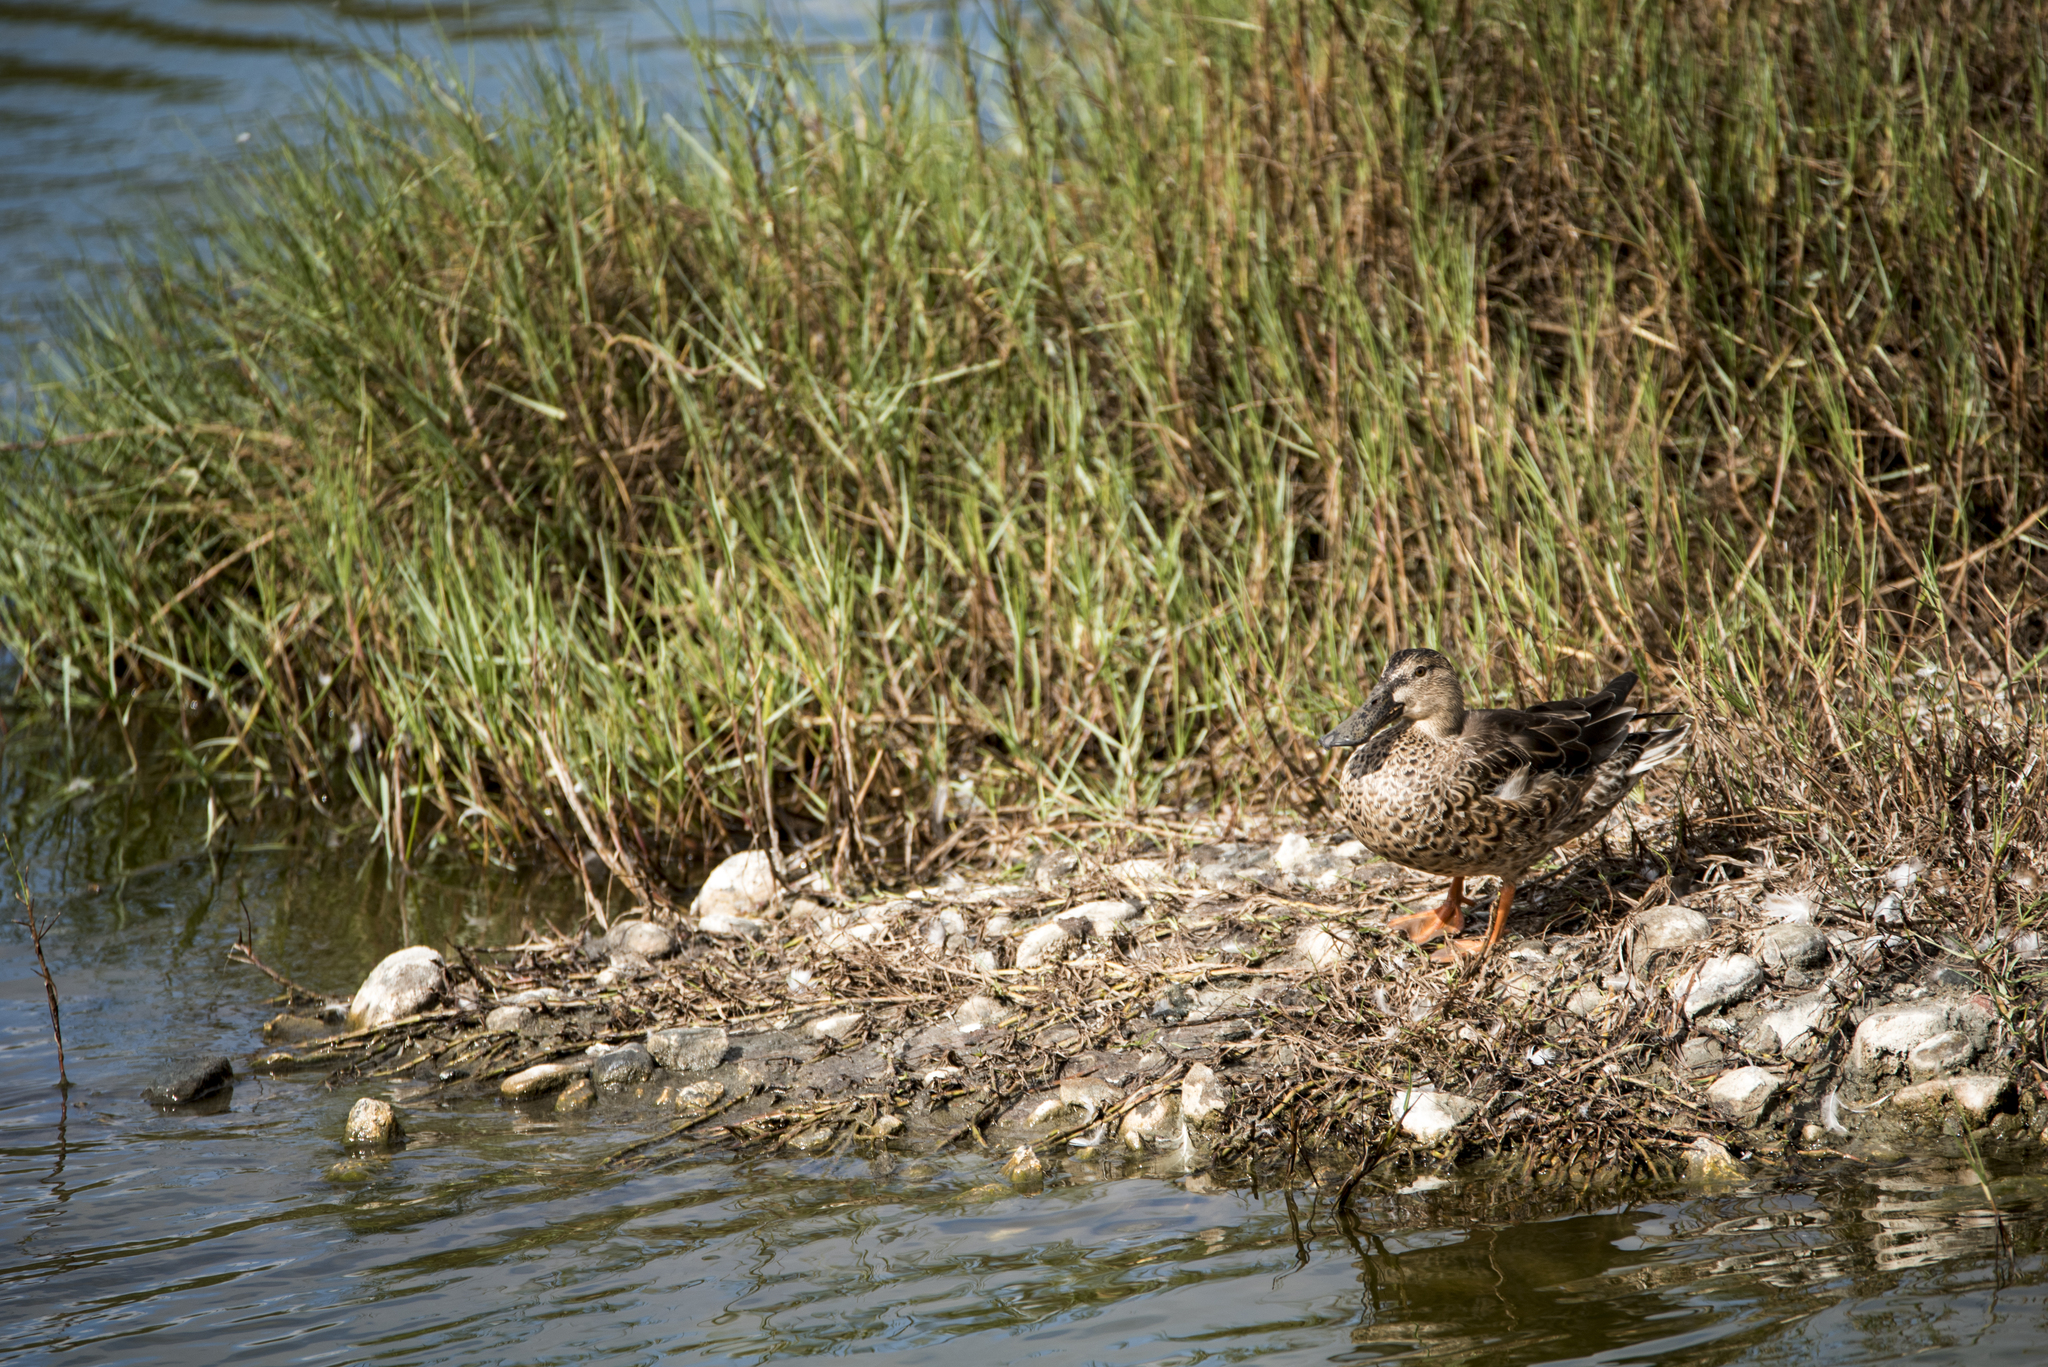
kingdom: Animalia
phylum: Chordata
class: Aves
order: Anseriformes
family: Anatidae
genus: Spatula
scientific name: Spatula clypeata
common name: Northern shoveler
